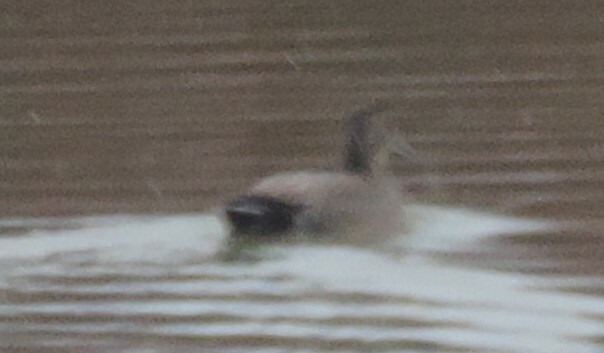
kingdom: Animalia
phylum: Chordata
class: Aves
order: Anseriformes
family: Anatidae
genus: Mareca
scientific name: Mareca strepera
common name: Gadwall
